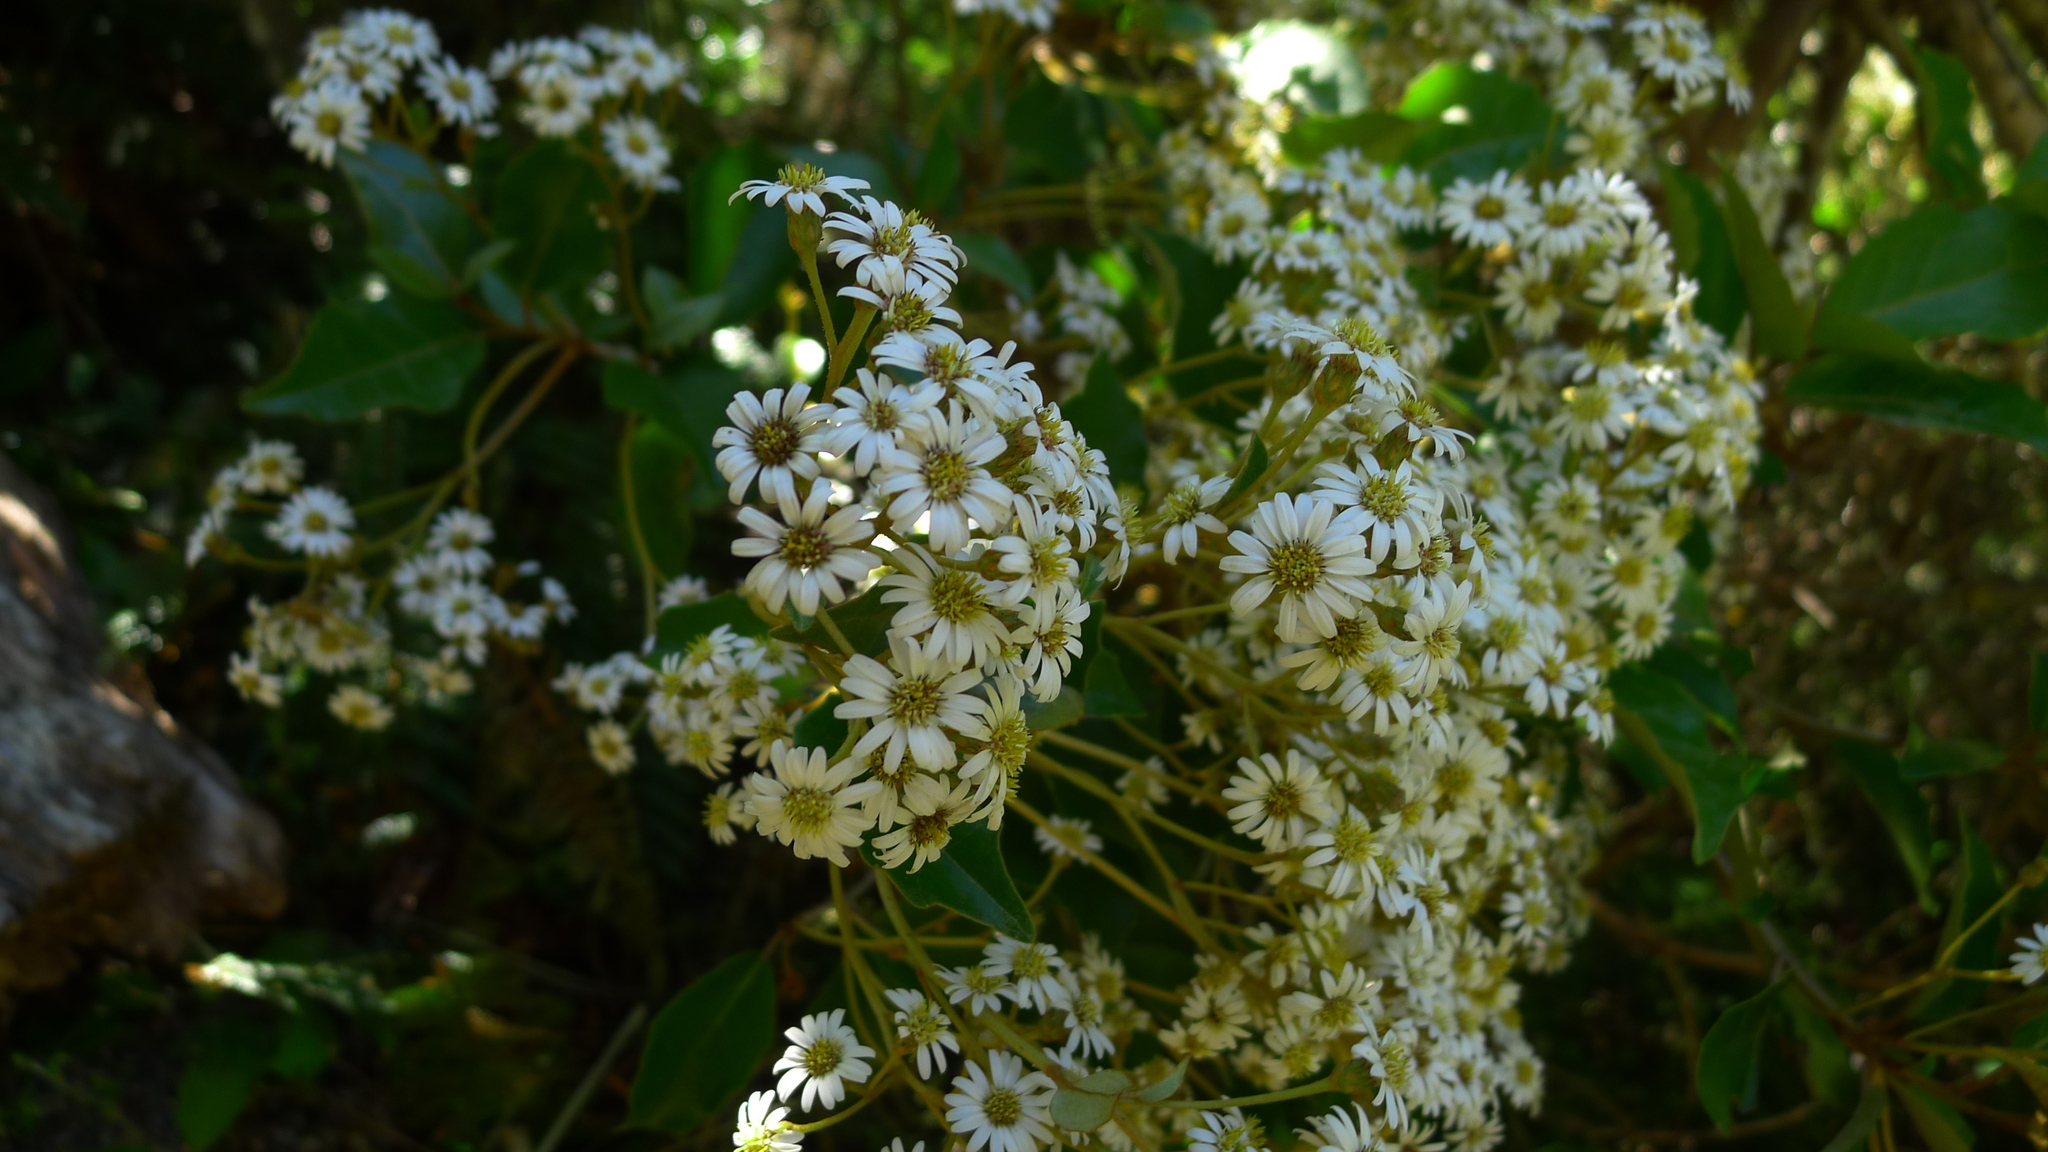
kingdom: Plantae
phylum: Tracheophyta
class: Magnoliopsida
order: Asterales
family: Asteraceae
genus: Olearia
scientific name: Olearia arborescens
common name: Glossy tree daisy
